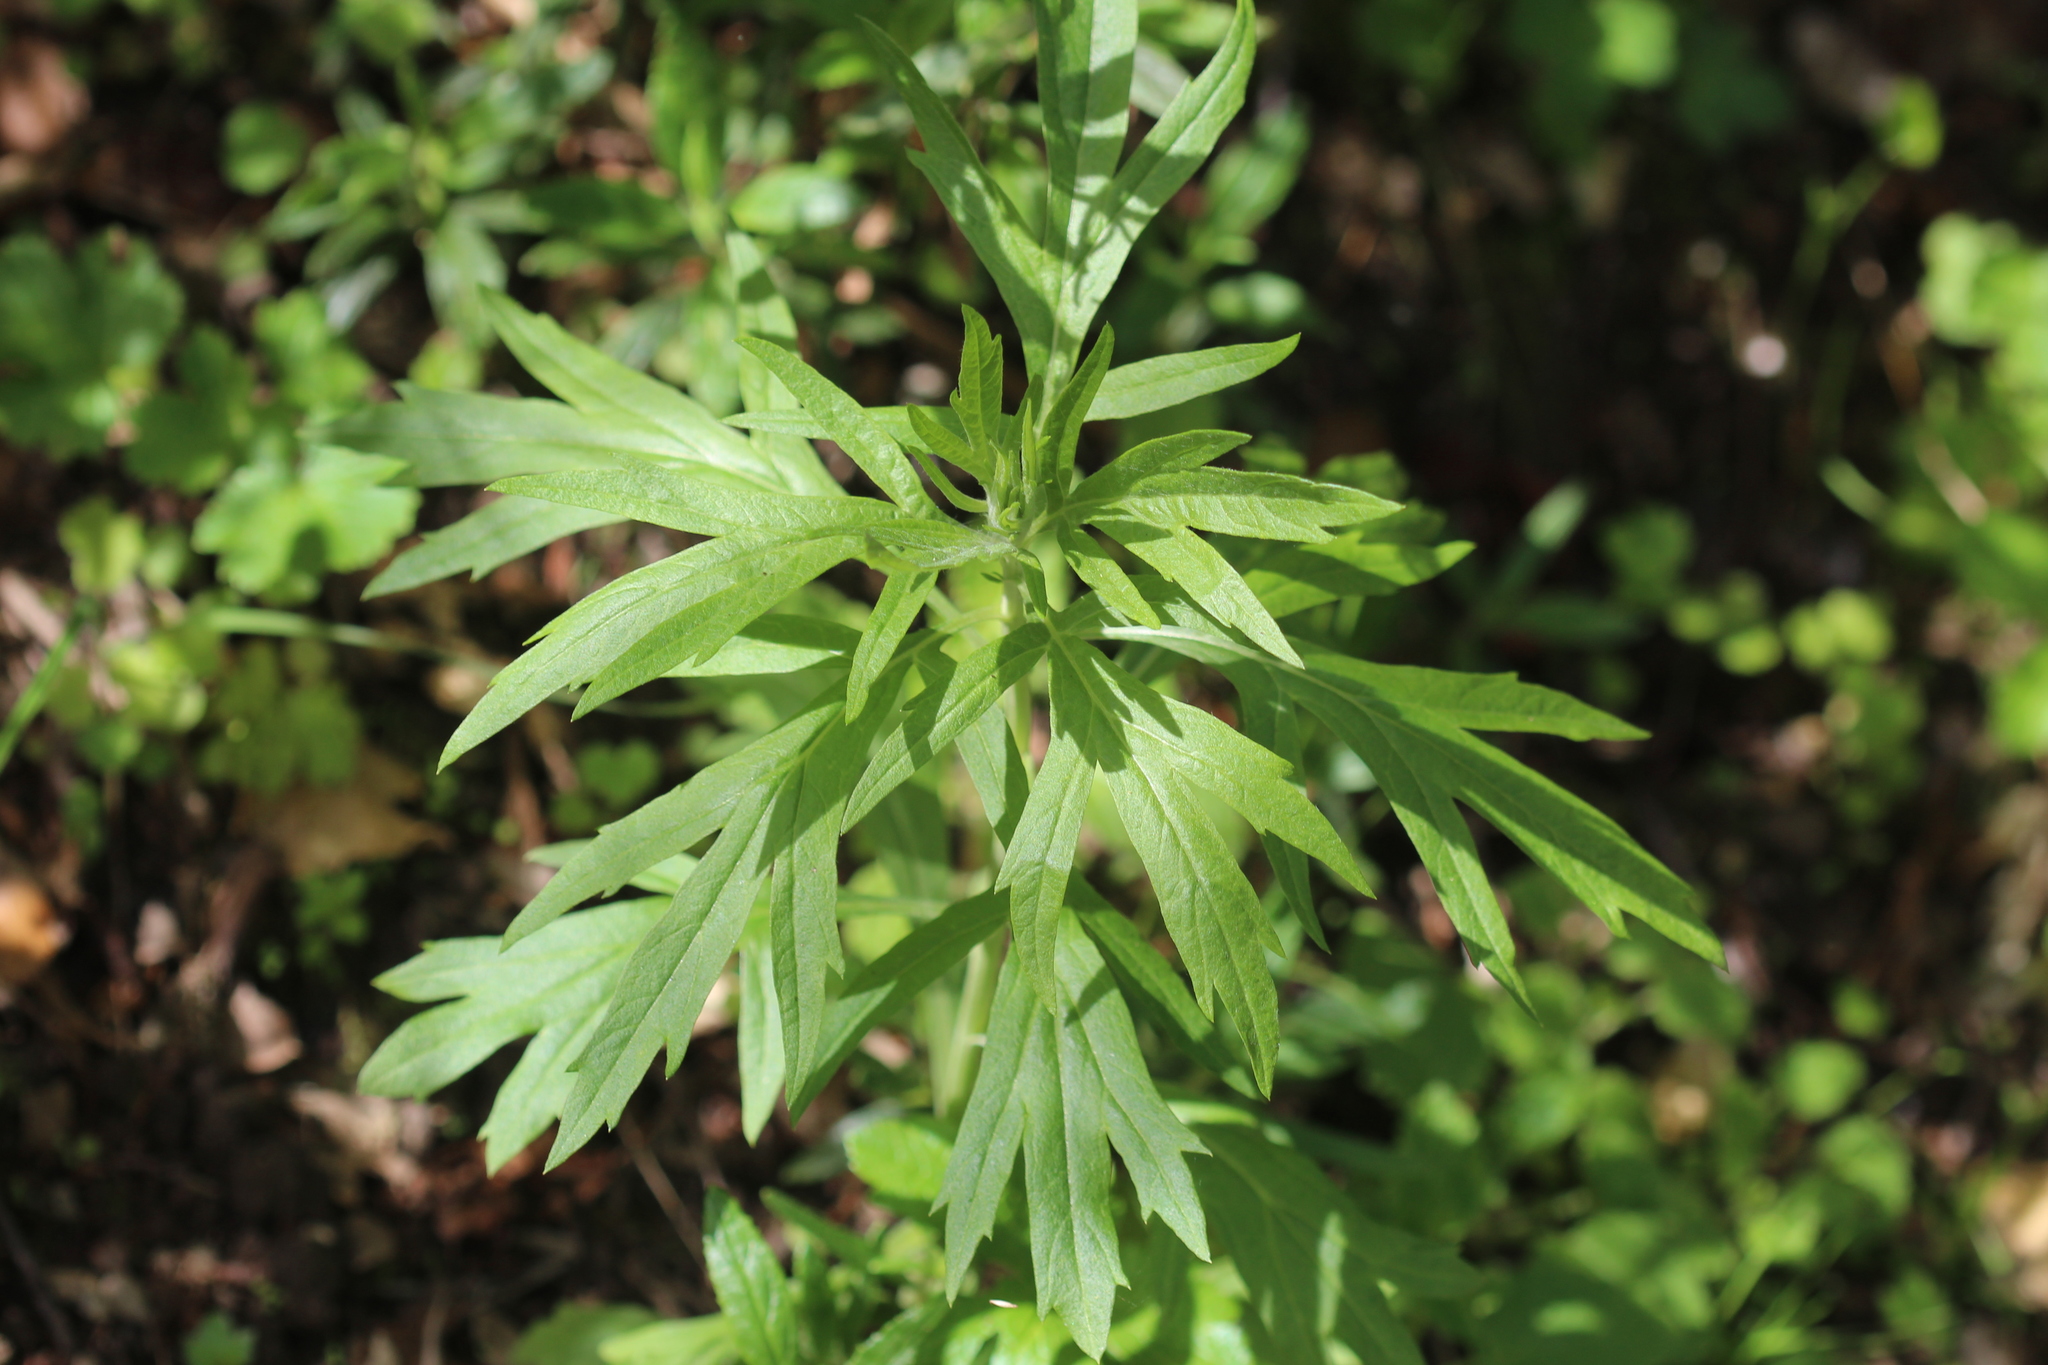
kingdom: Plantae
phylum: Tracheophyta
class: Magnoliopsida
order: Asterales
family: Asteraceae
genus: Artemisia
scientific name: Artemisia douglasiana
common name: Northwest mugwort
